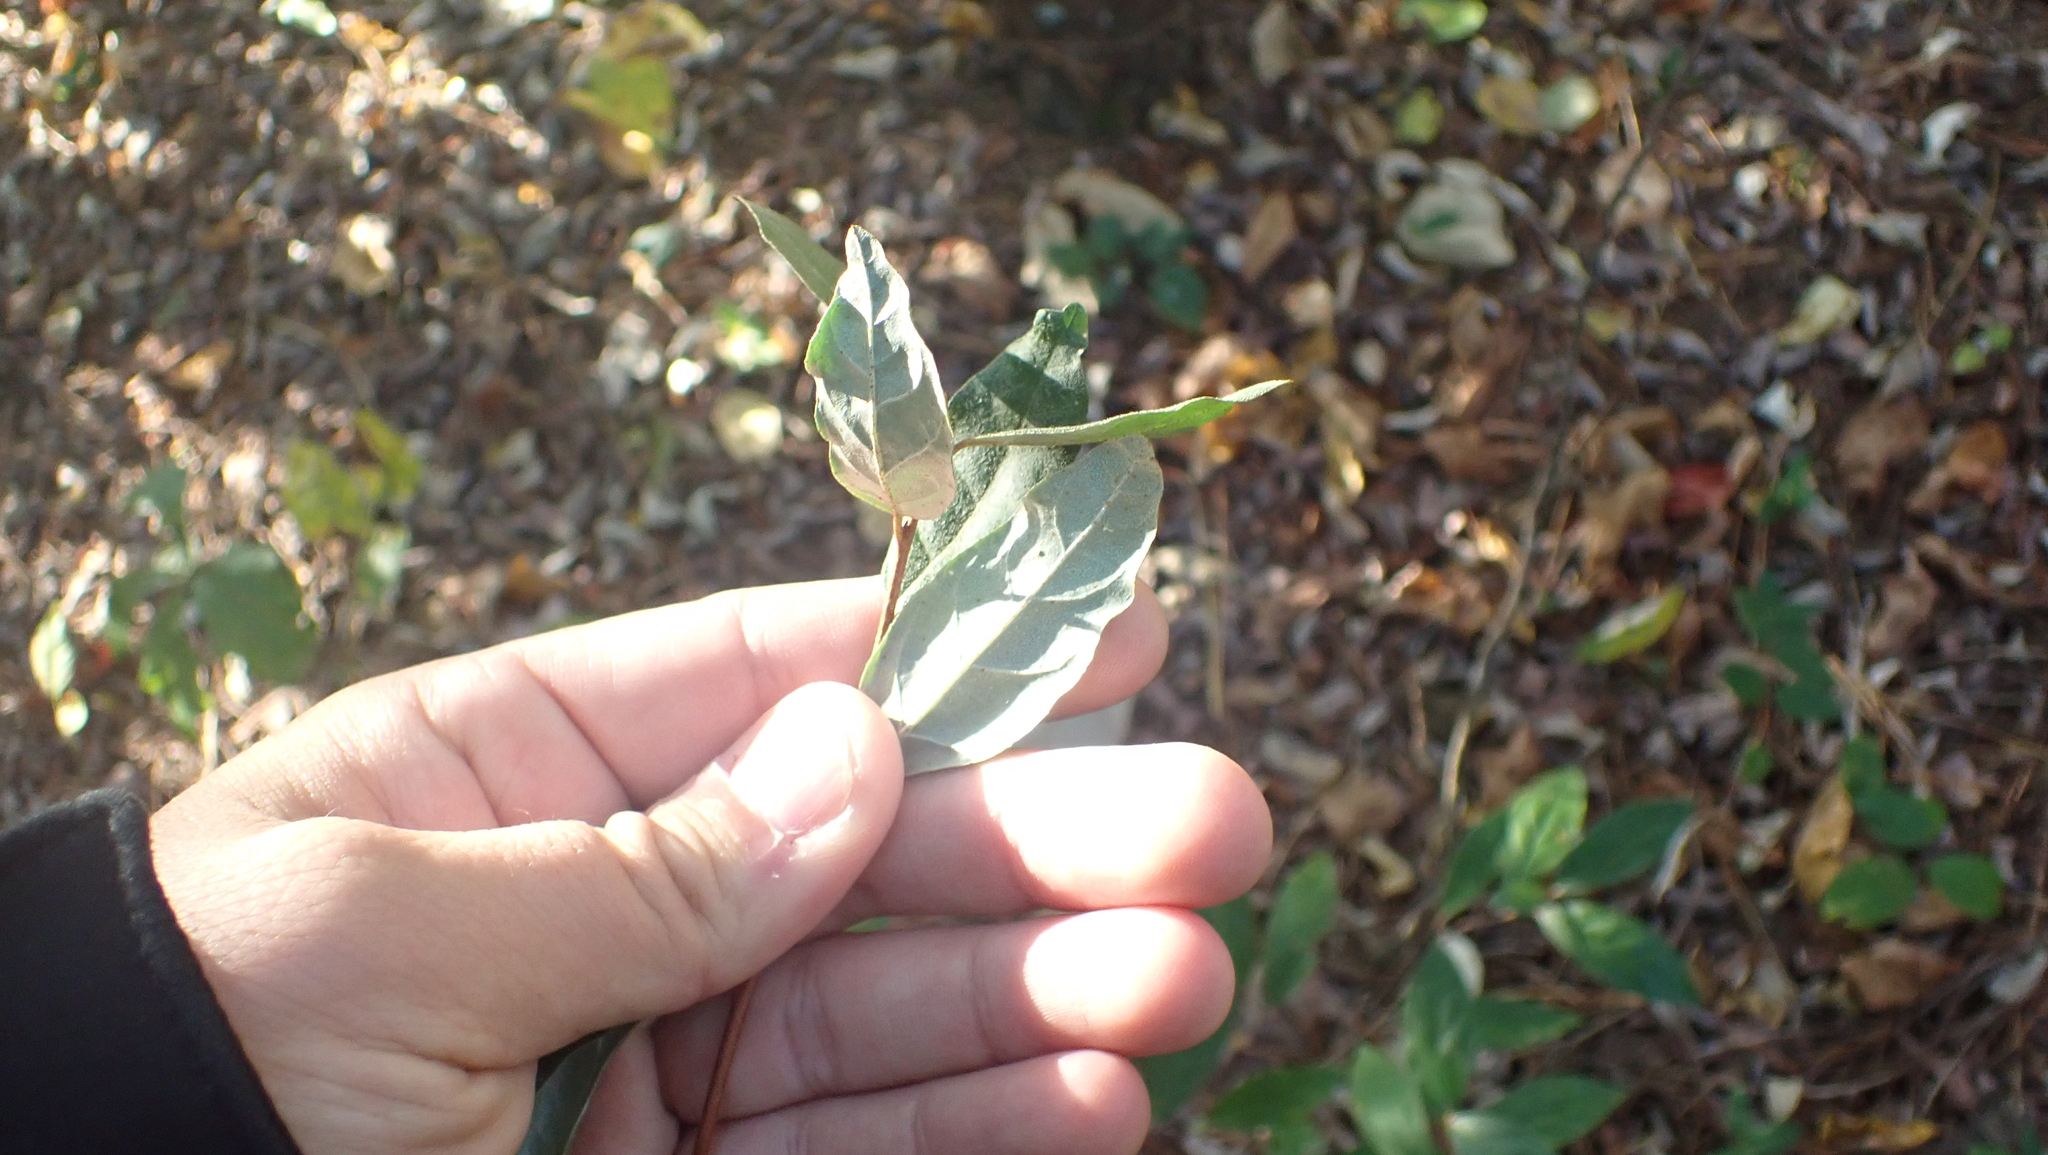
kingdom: Plantae
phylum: Tracheophyta
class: Magnoliopsida
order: Rosales
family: Elaeagnaceae
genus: Elaeagnus
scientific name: Elaeagnus umbellata
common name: Autumn olive
